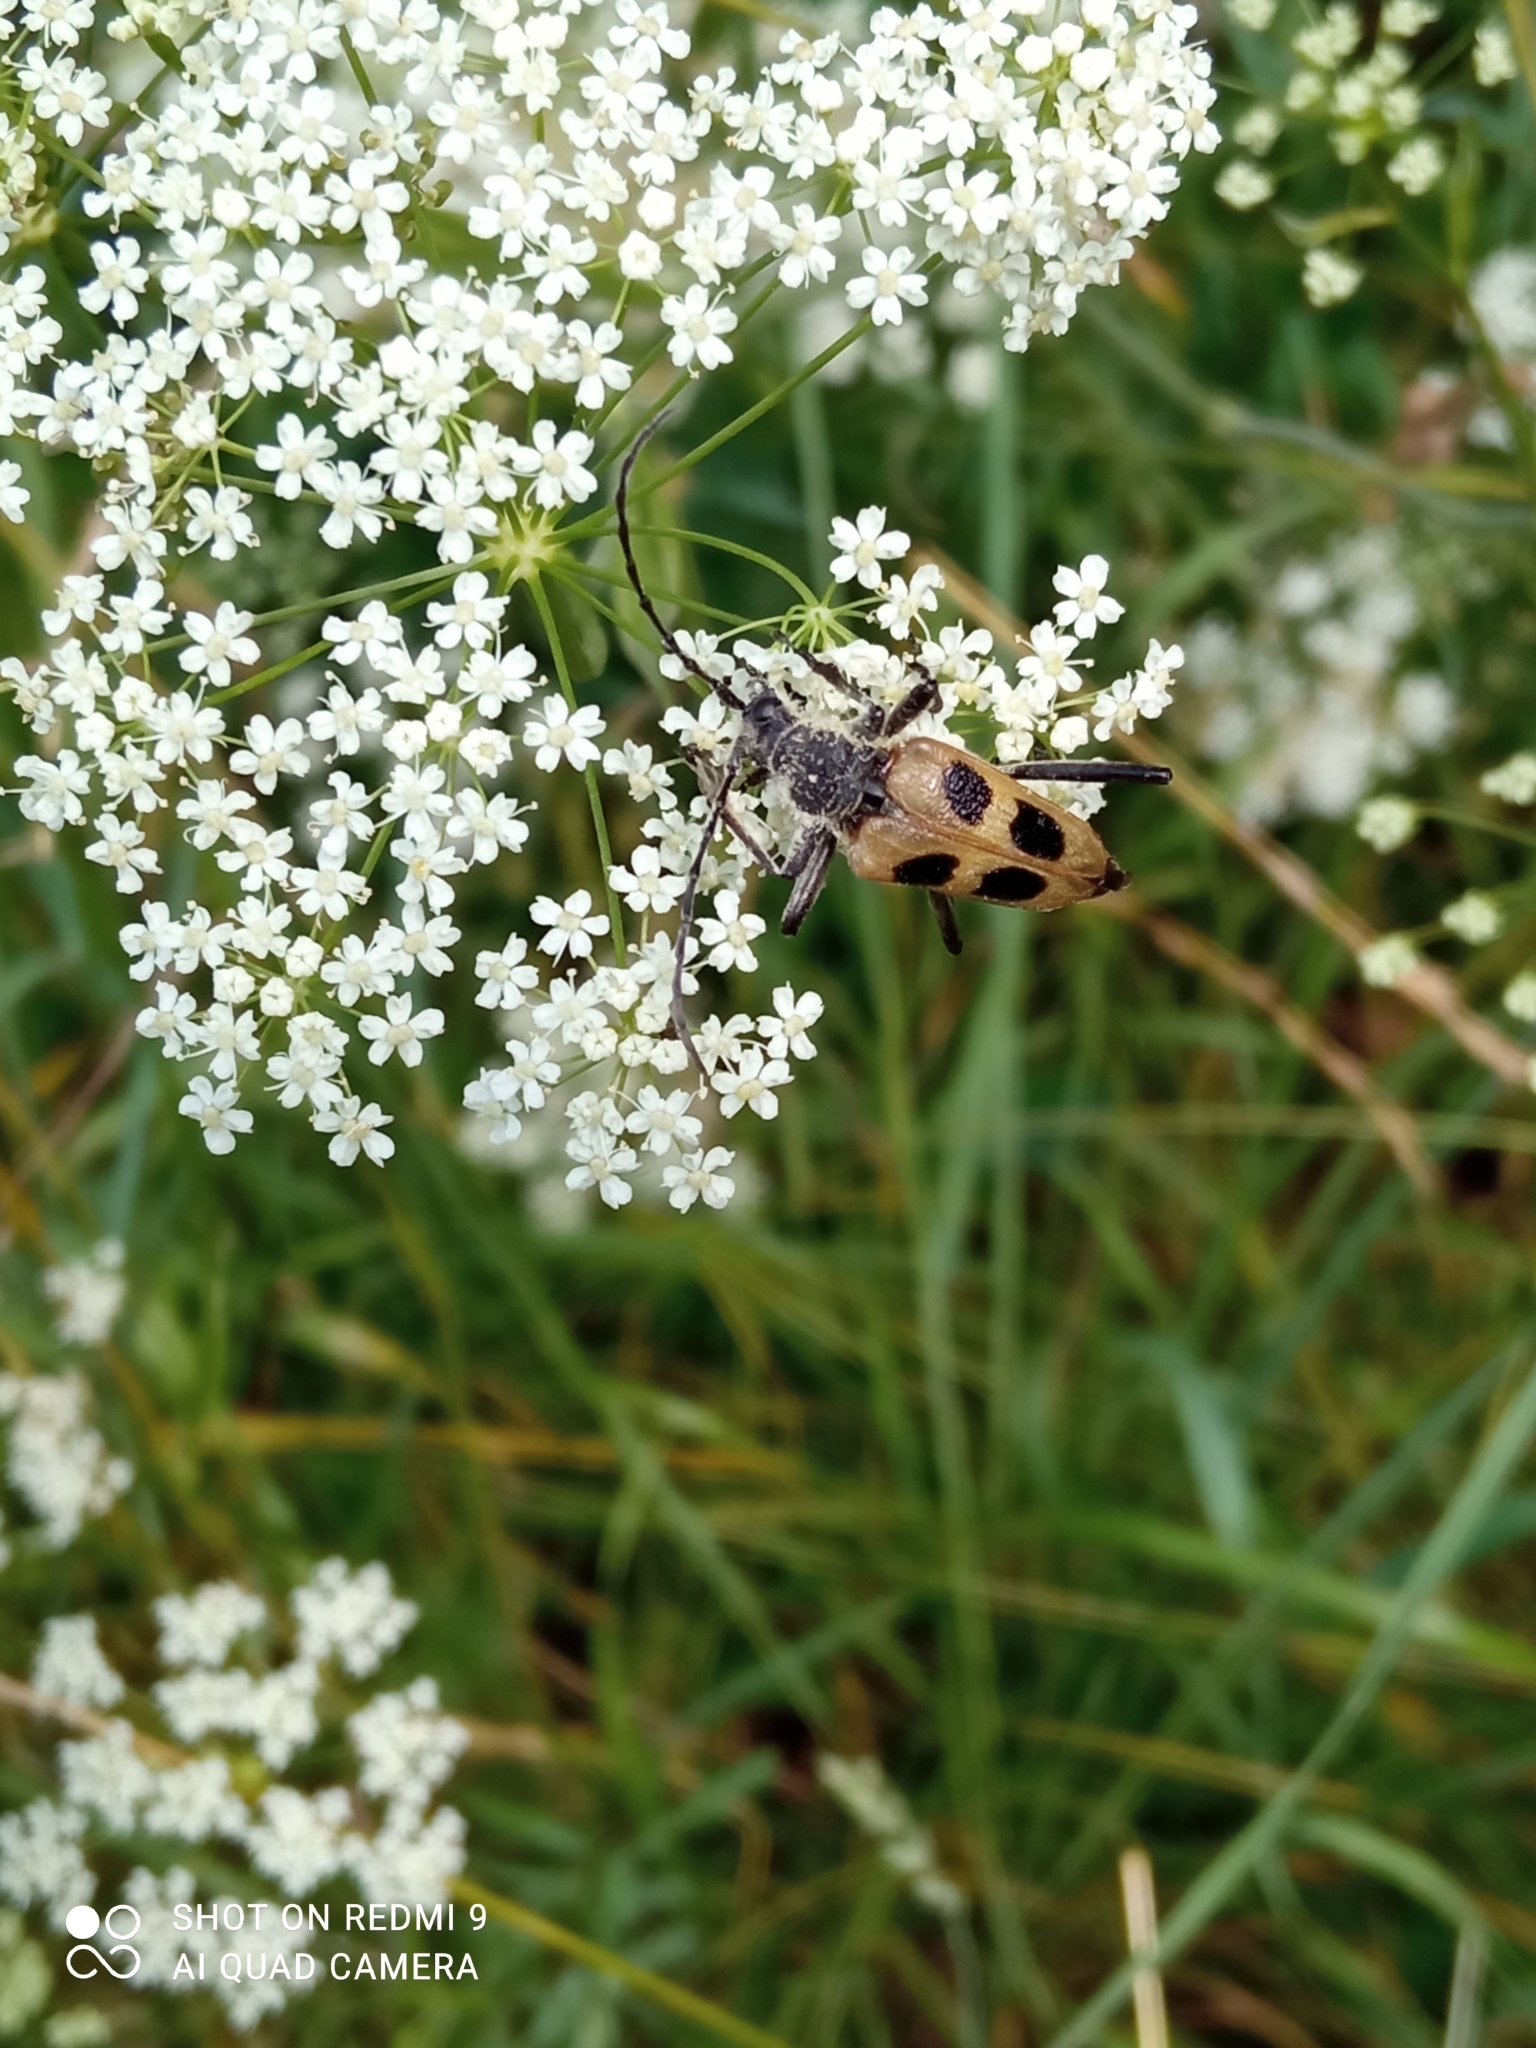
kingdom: Animalia
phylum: Arthropoda
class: Insecta
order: Coleoptera
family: Cerambycidae
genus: Pachyta
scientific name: Pachyta quadrimaculata
